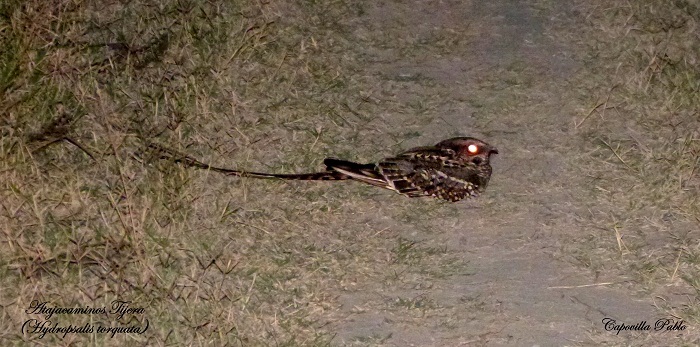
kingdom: Animalia
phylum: Chordata
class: Aves
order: Caprimulgiformes
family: Caprimulgidae
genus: Hydropsalis
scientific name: Hydropsalis torquata
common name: Scissor-tailed nightjar
